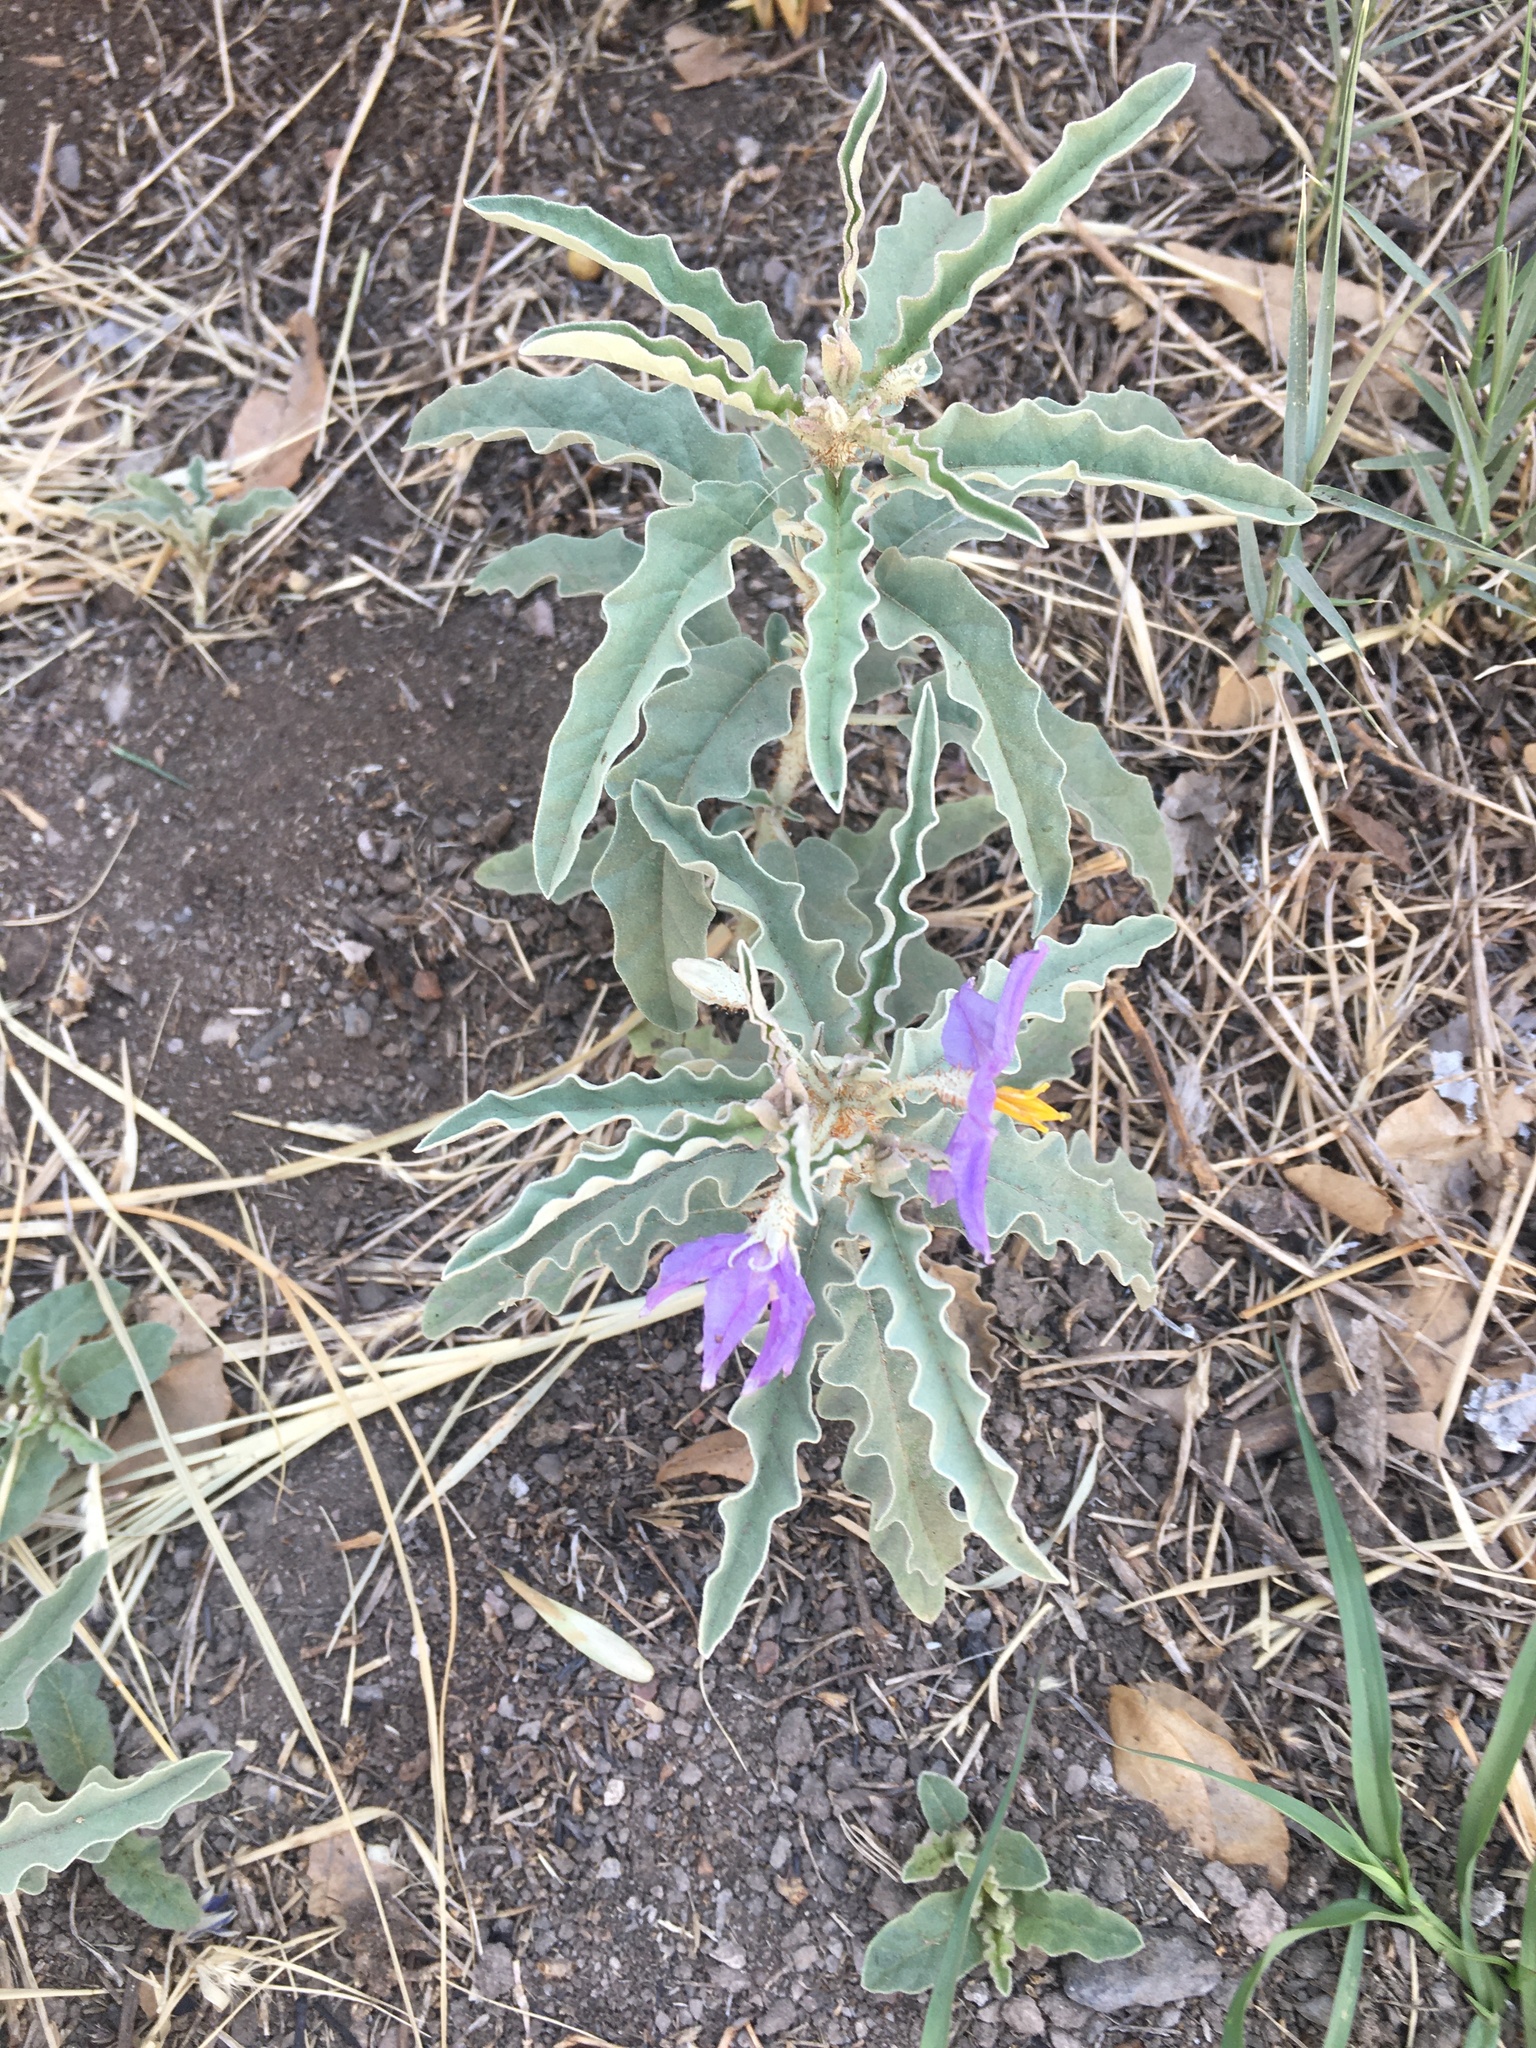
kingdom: Plantae
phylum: Tracheophyta
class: Magnoliopsida
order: Solanales
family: Solanaceae
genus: Solanum
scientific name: Solanum elaeagnifolium
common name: Silverleaf nightshade
